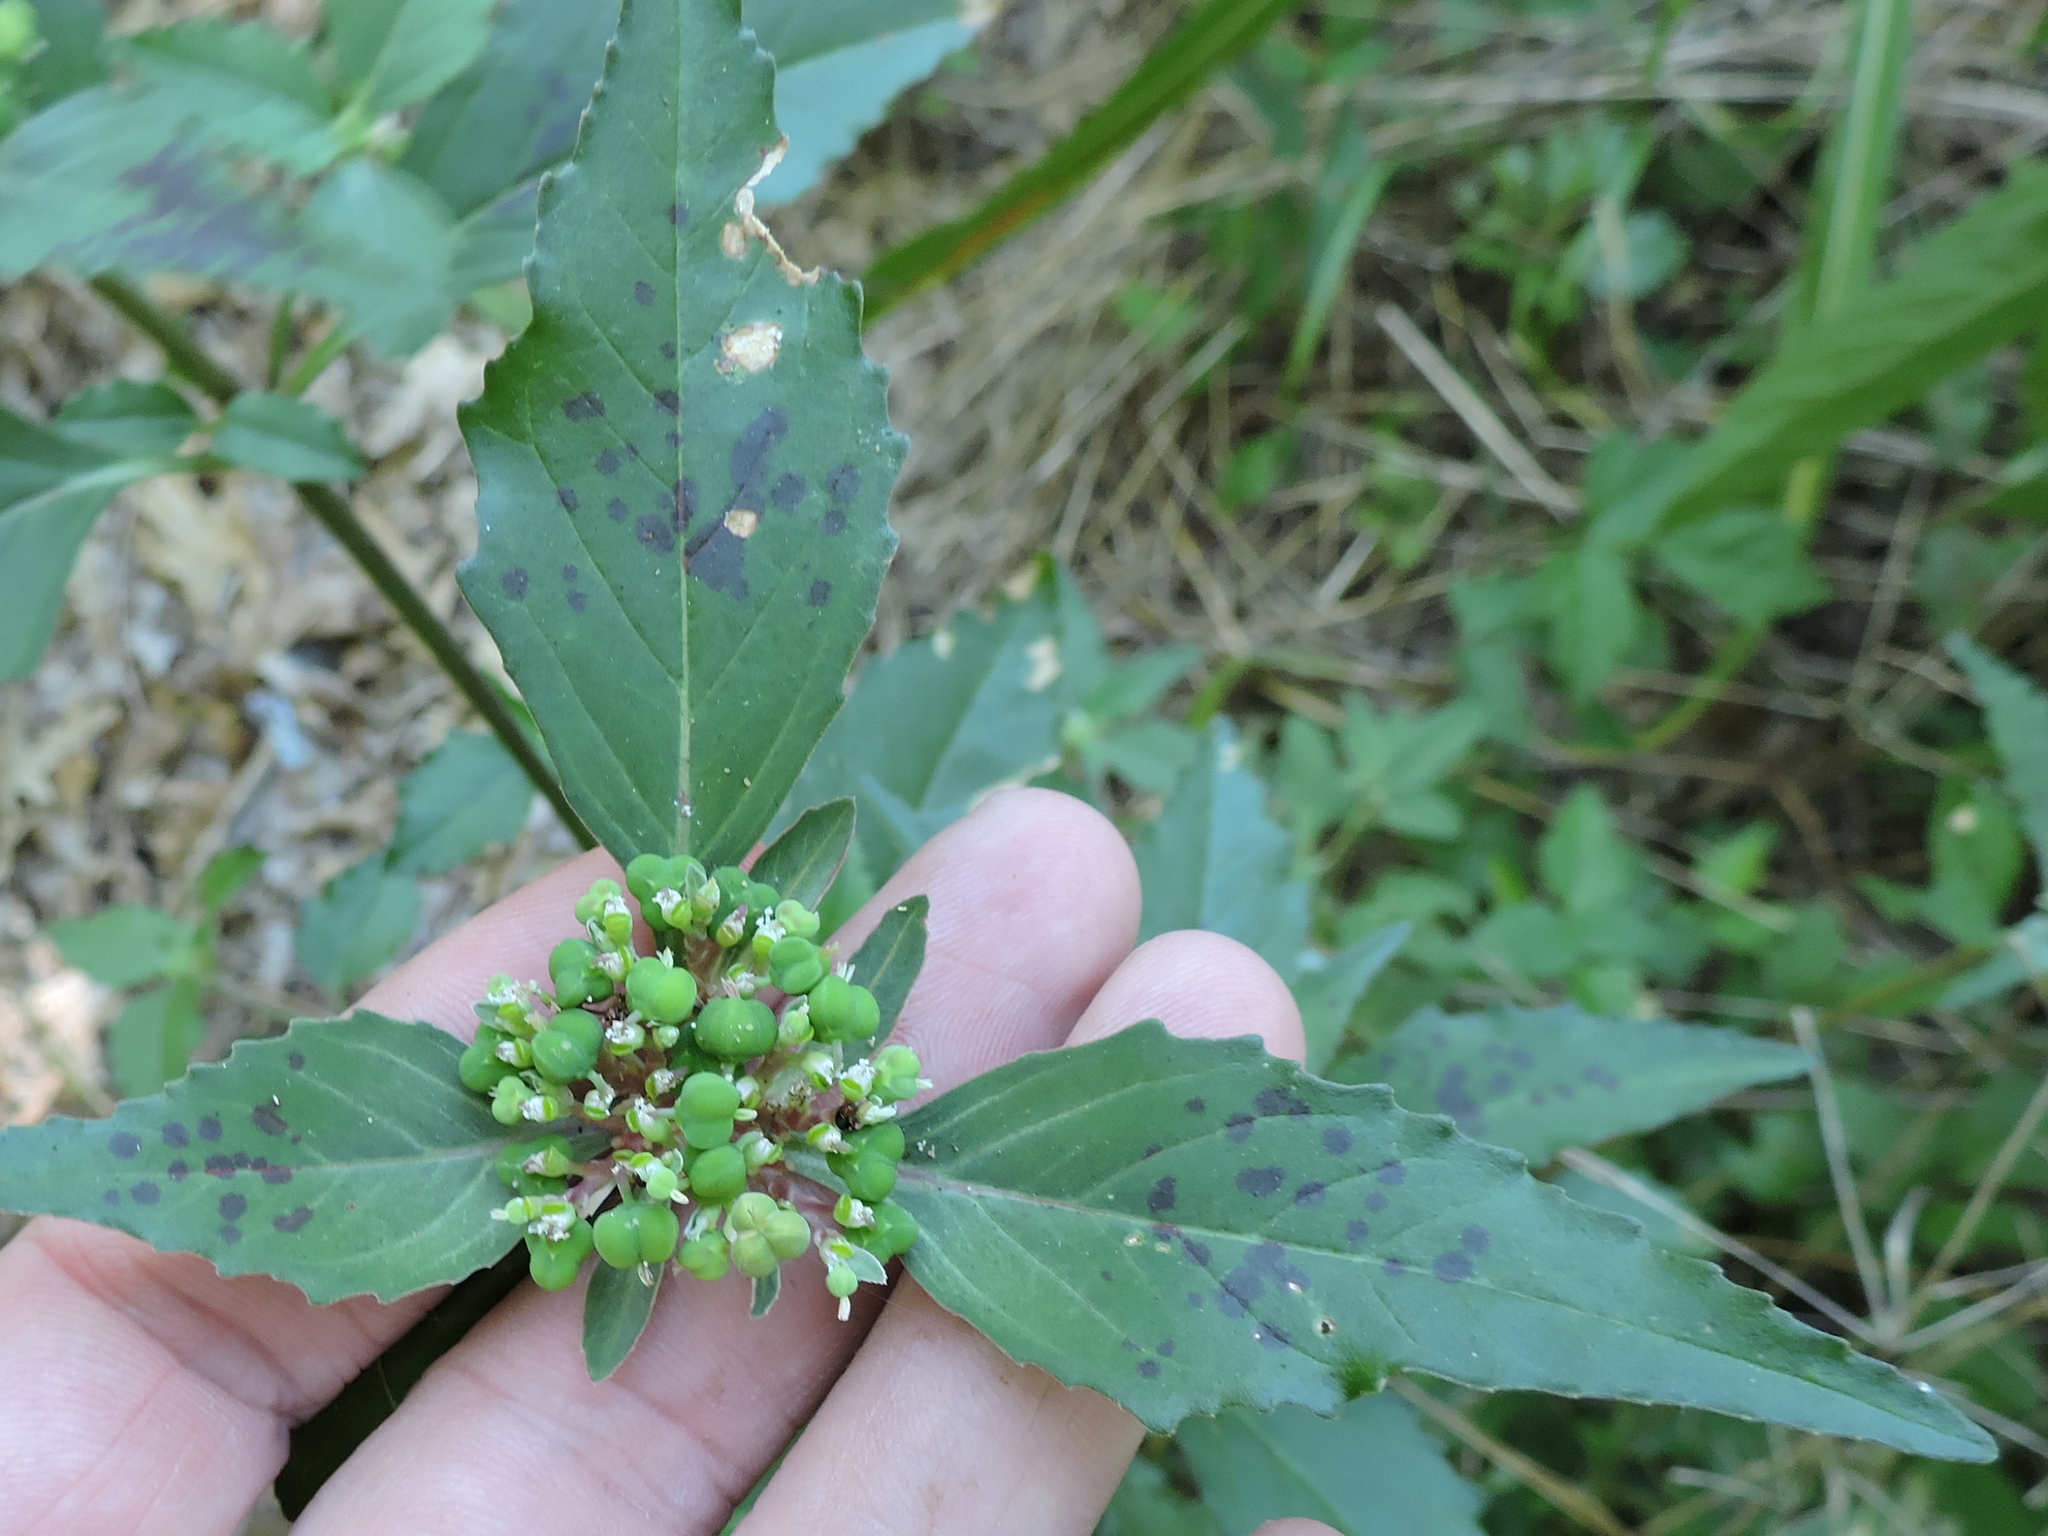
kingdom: Plantae
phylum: Tracheophyta
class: Magnoliopsida
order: Malpighiales
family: Euphorbiaceae
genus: Euphorbia
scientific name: Euphorbia dentata
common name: Dentate spurge
